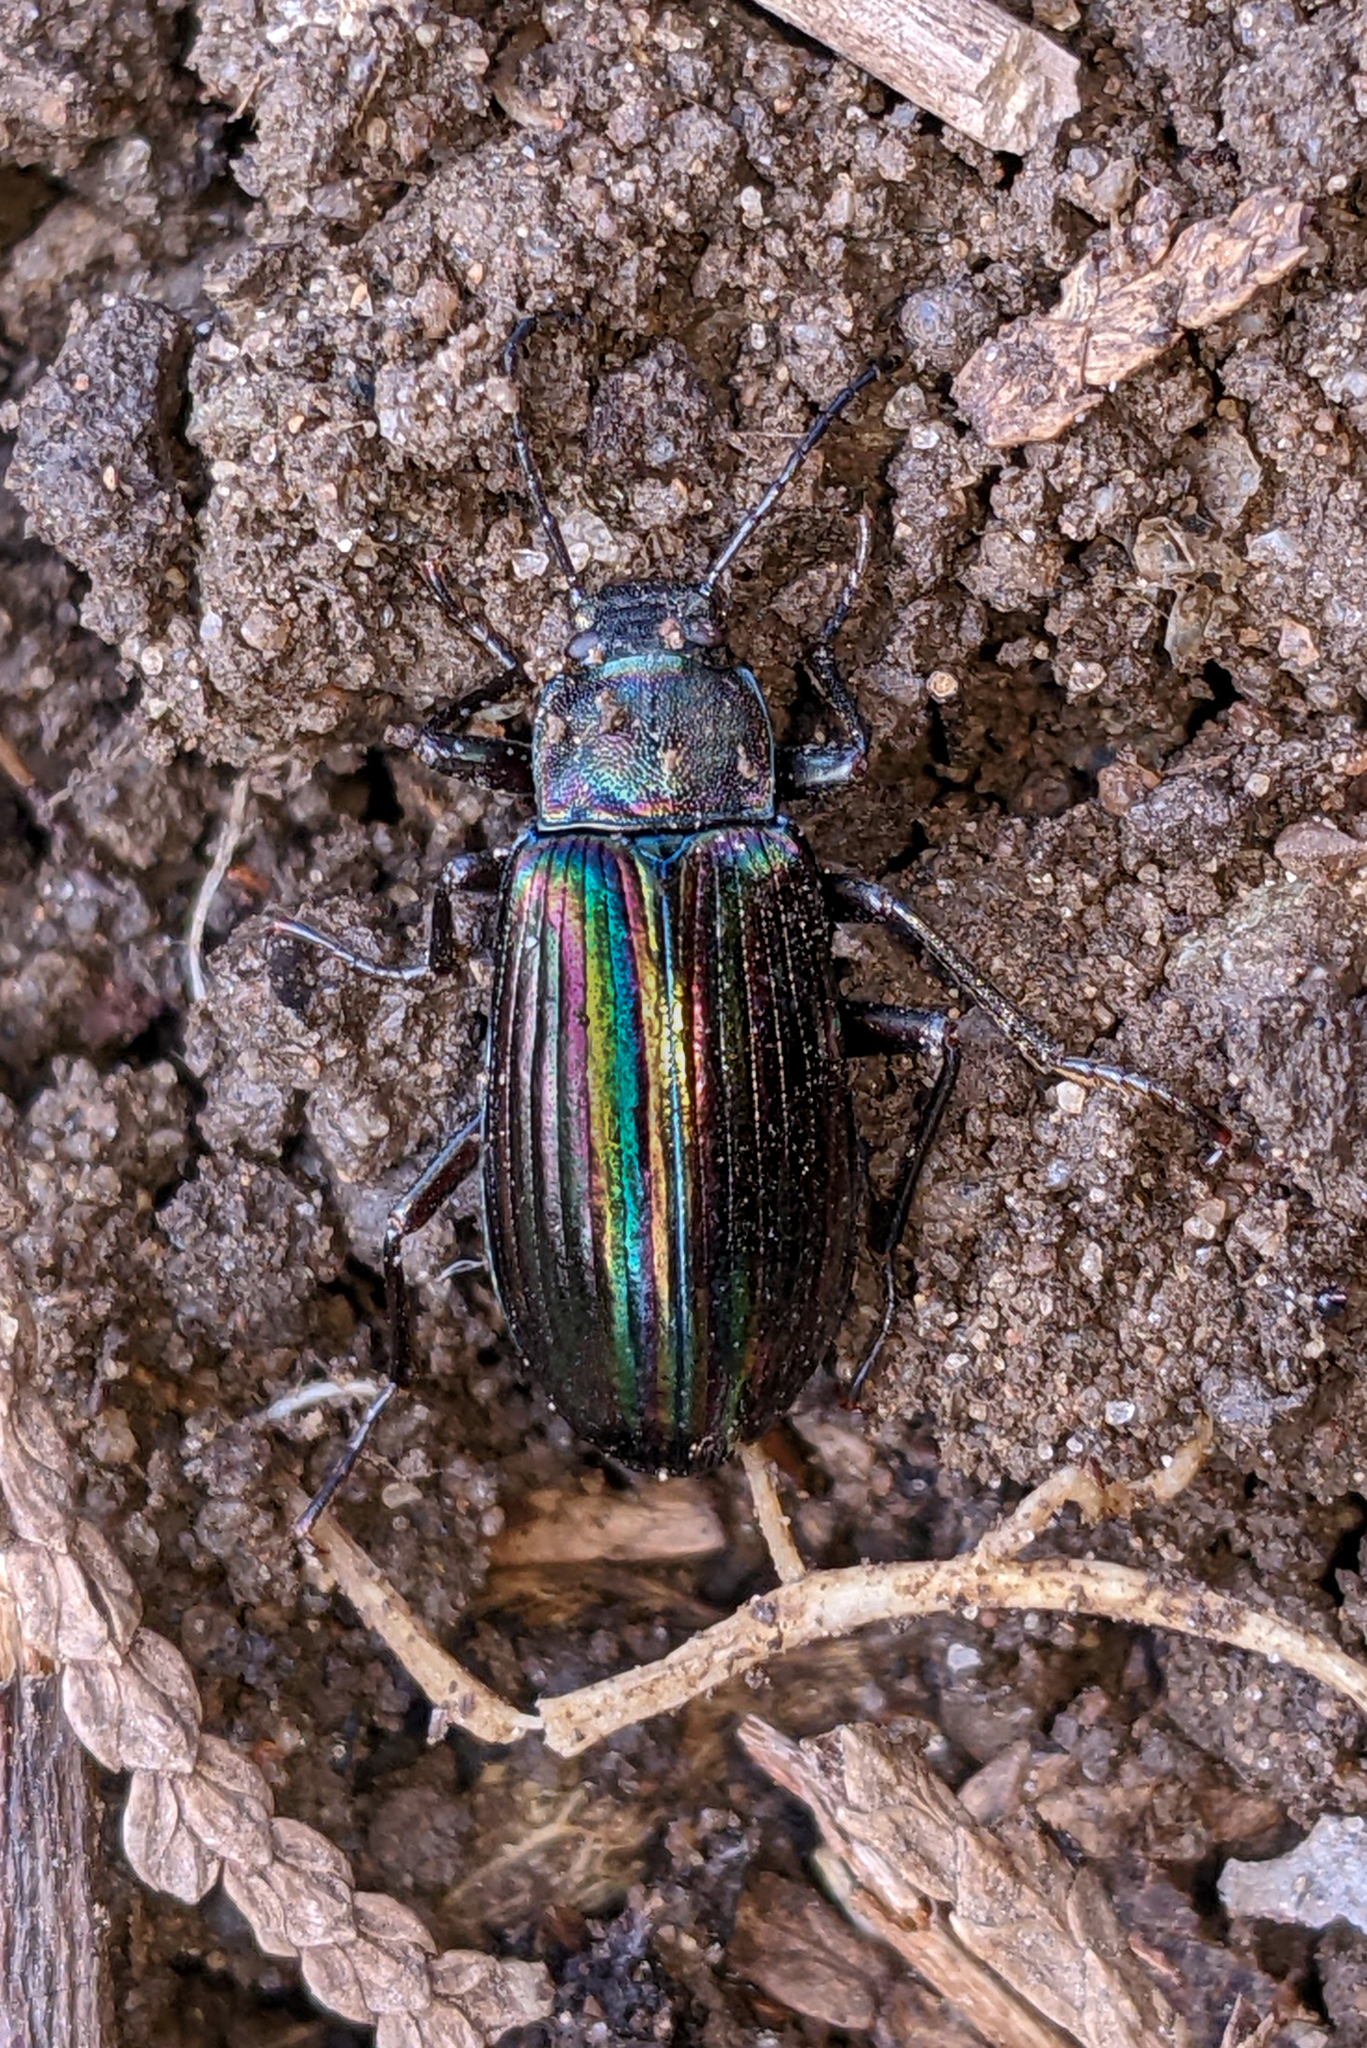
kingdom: Animalia
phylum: Arthropoda
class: Insecta
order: Coleoptera
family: Tenebrionidae
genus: Tarpela
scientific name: Tarpela micans
